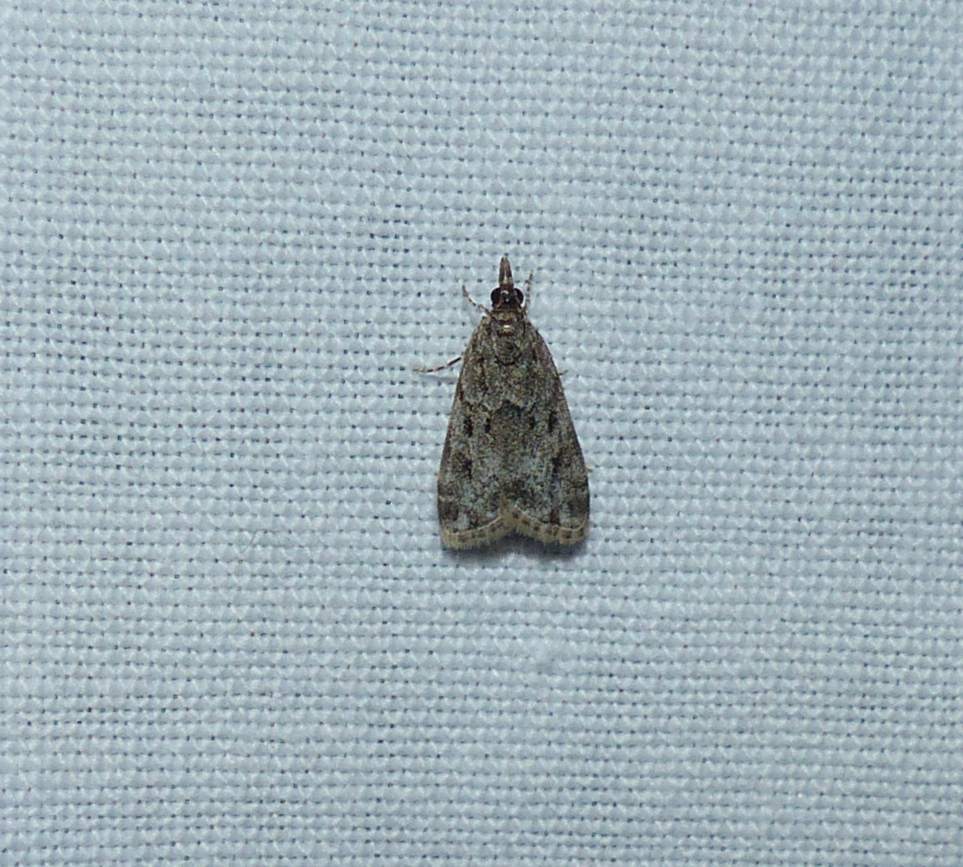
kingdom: Animalia
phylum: Arthropoda
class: Insecta
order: Lepidoptera
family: Crambidae
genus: Scoparia
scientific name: Scoparia basalis
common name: Many-spotted scoparia moth
